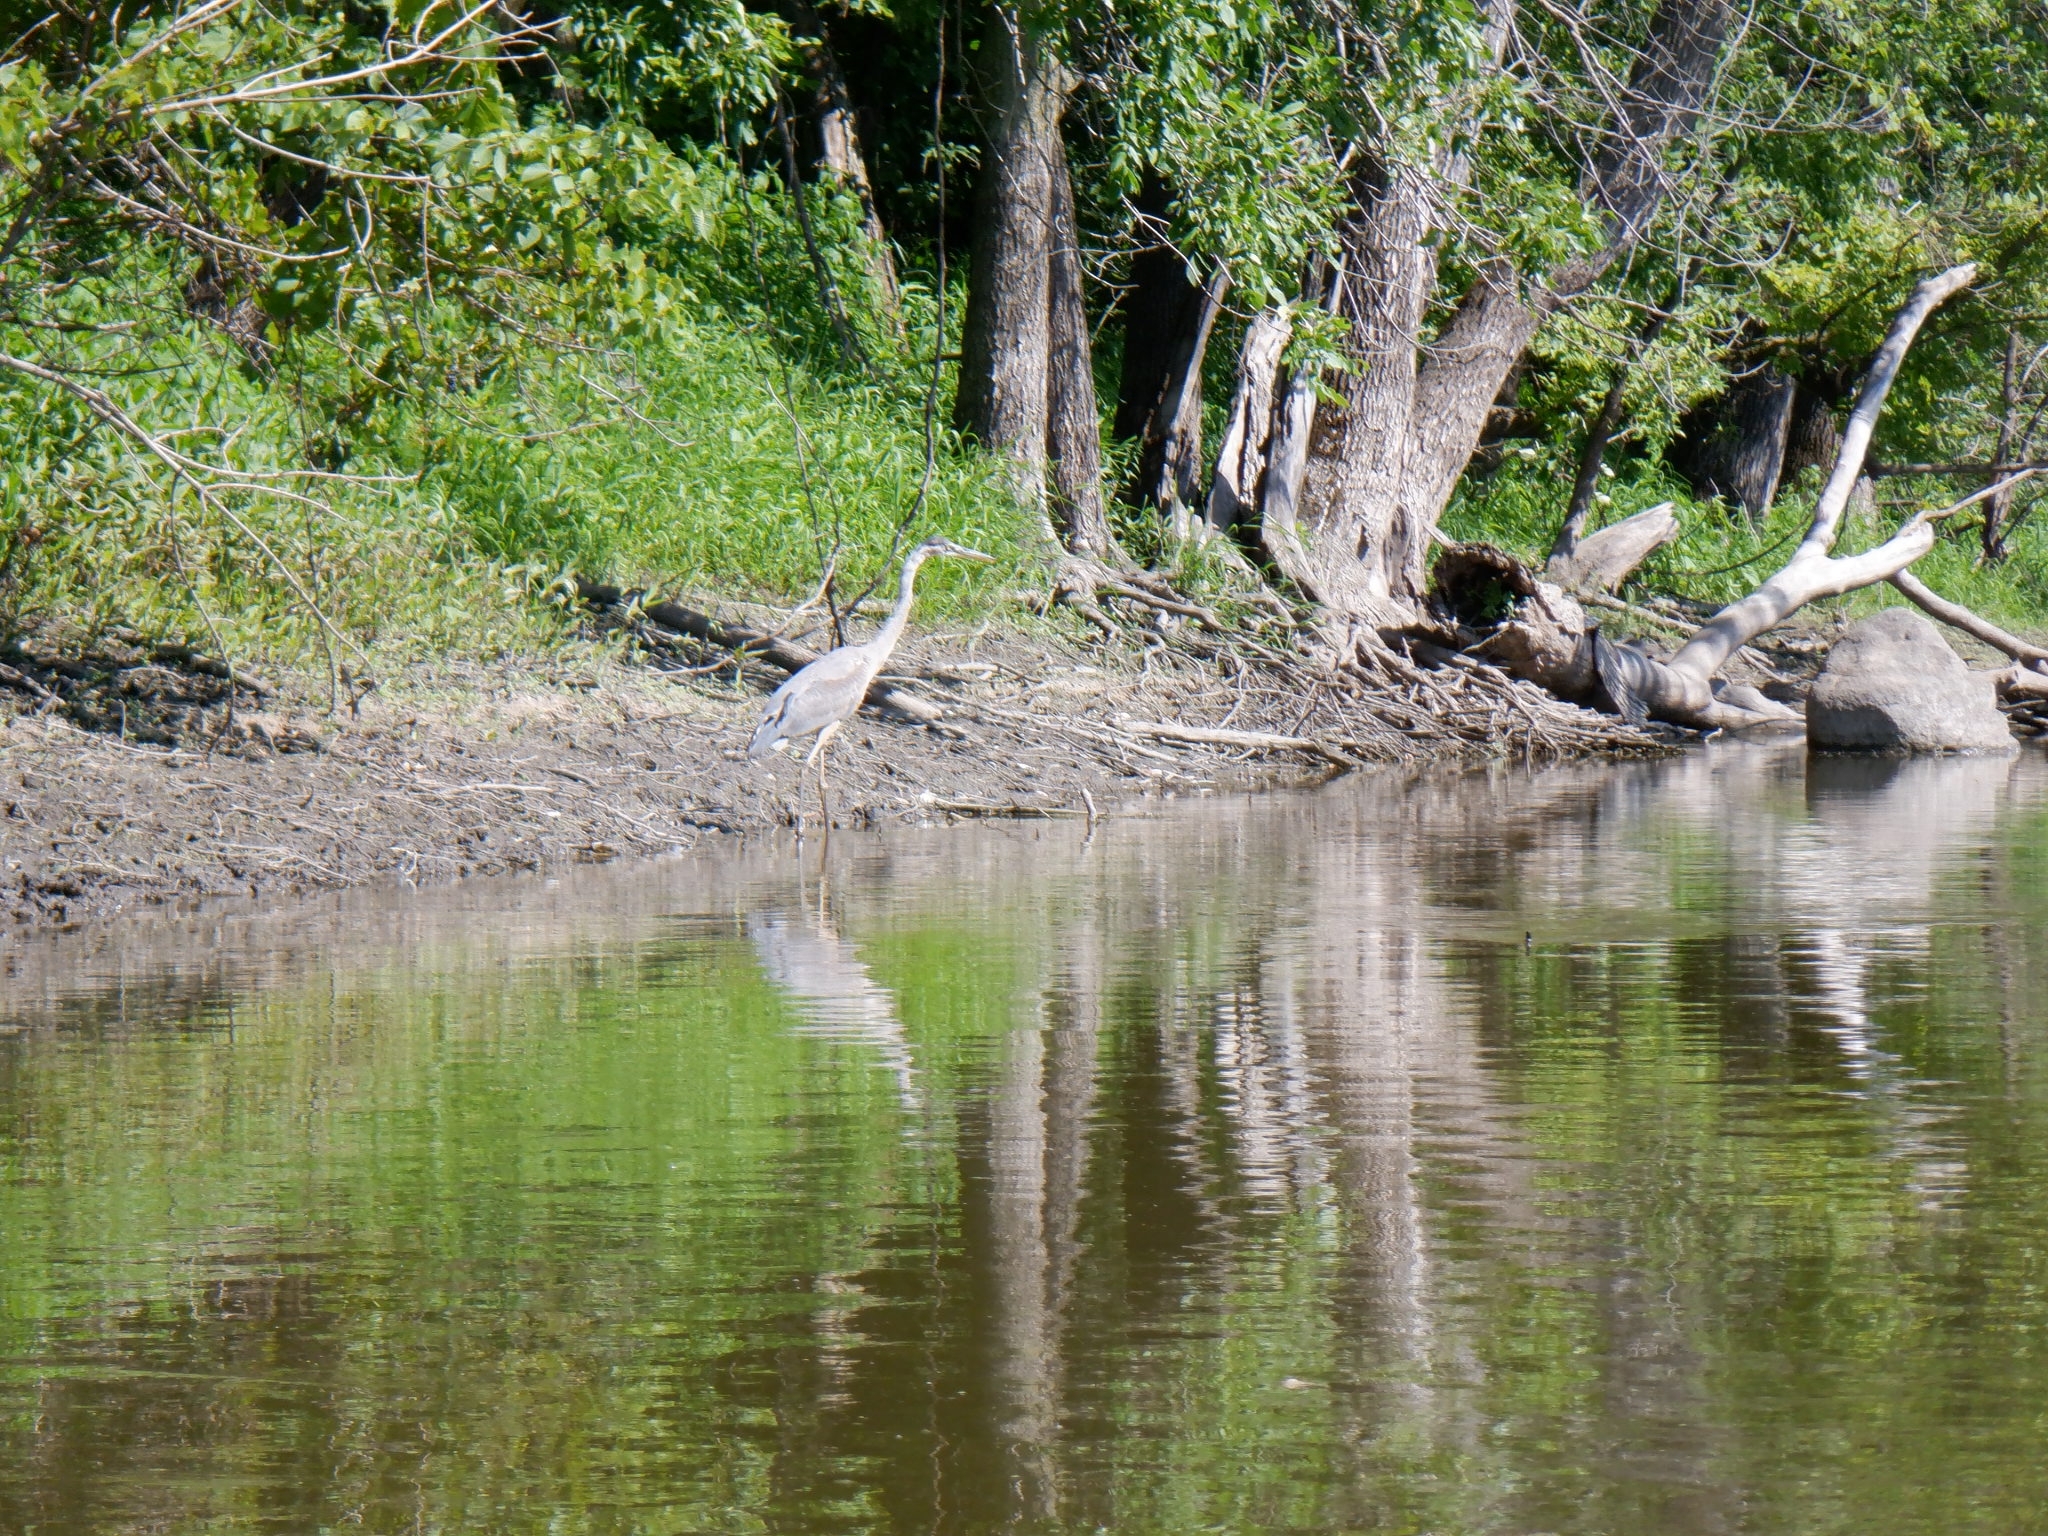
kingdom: Animalia
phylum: Chordata
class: Aves
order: Pelecaniformes
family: Ardeidae
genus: Ardea
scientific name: Ardea herodias
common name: Great blue heron
